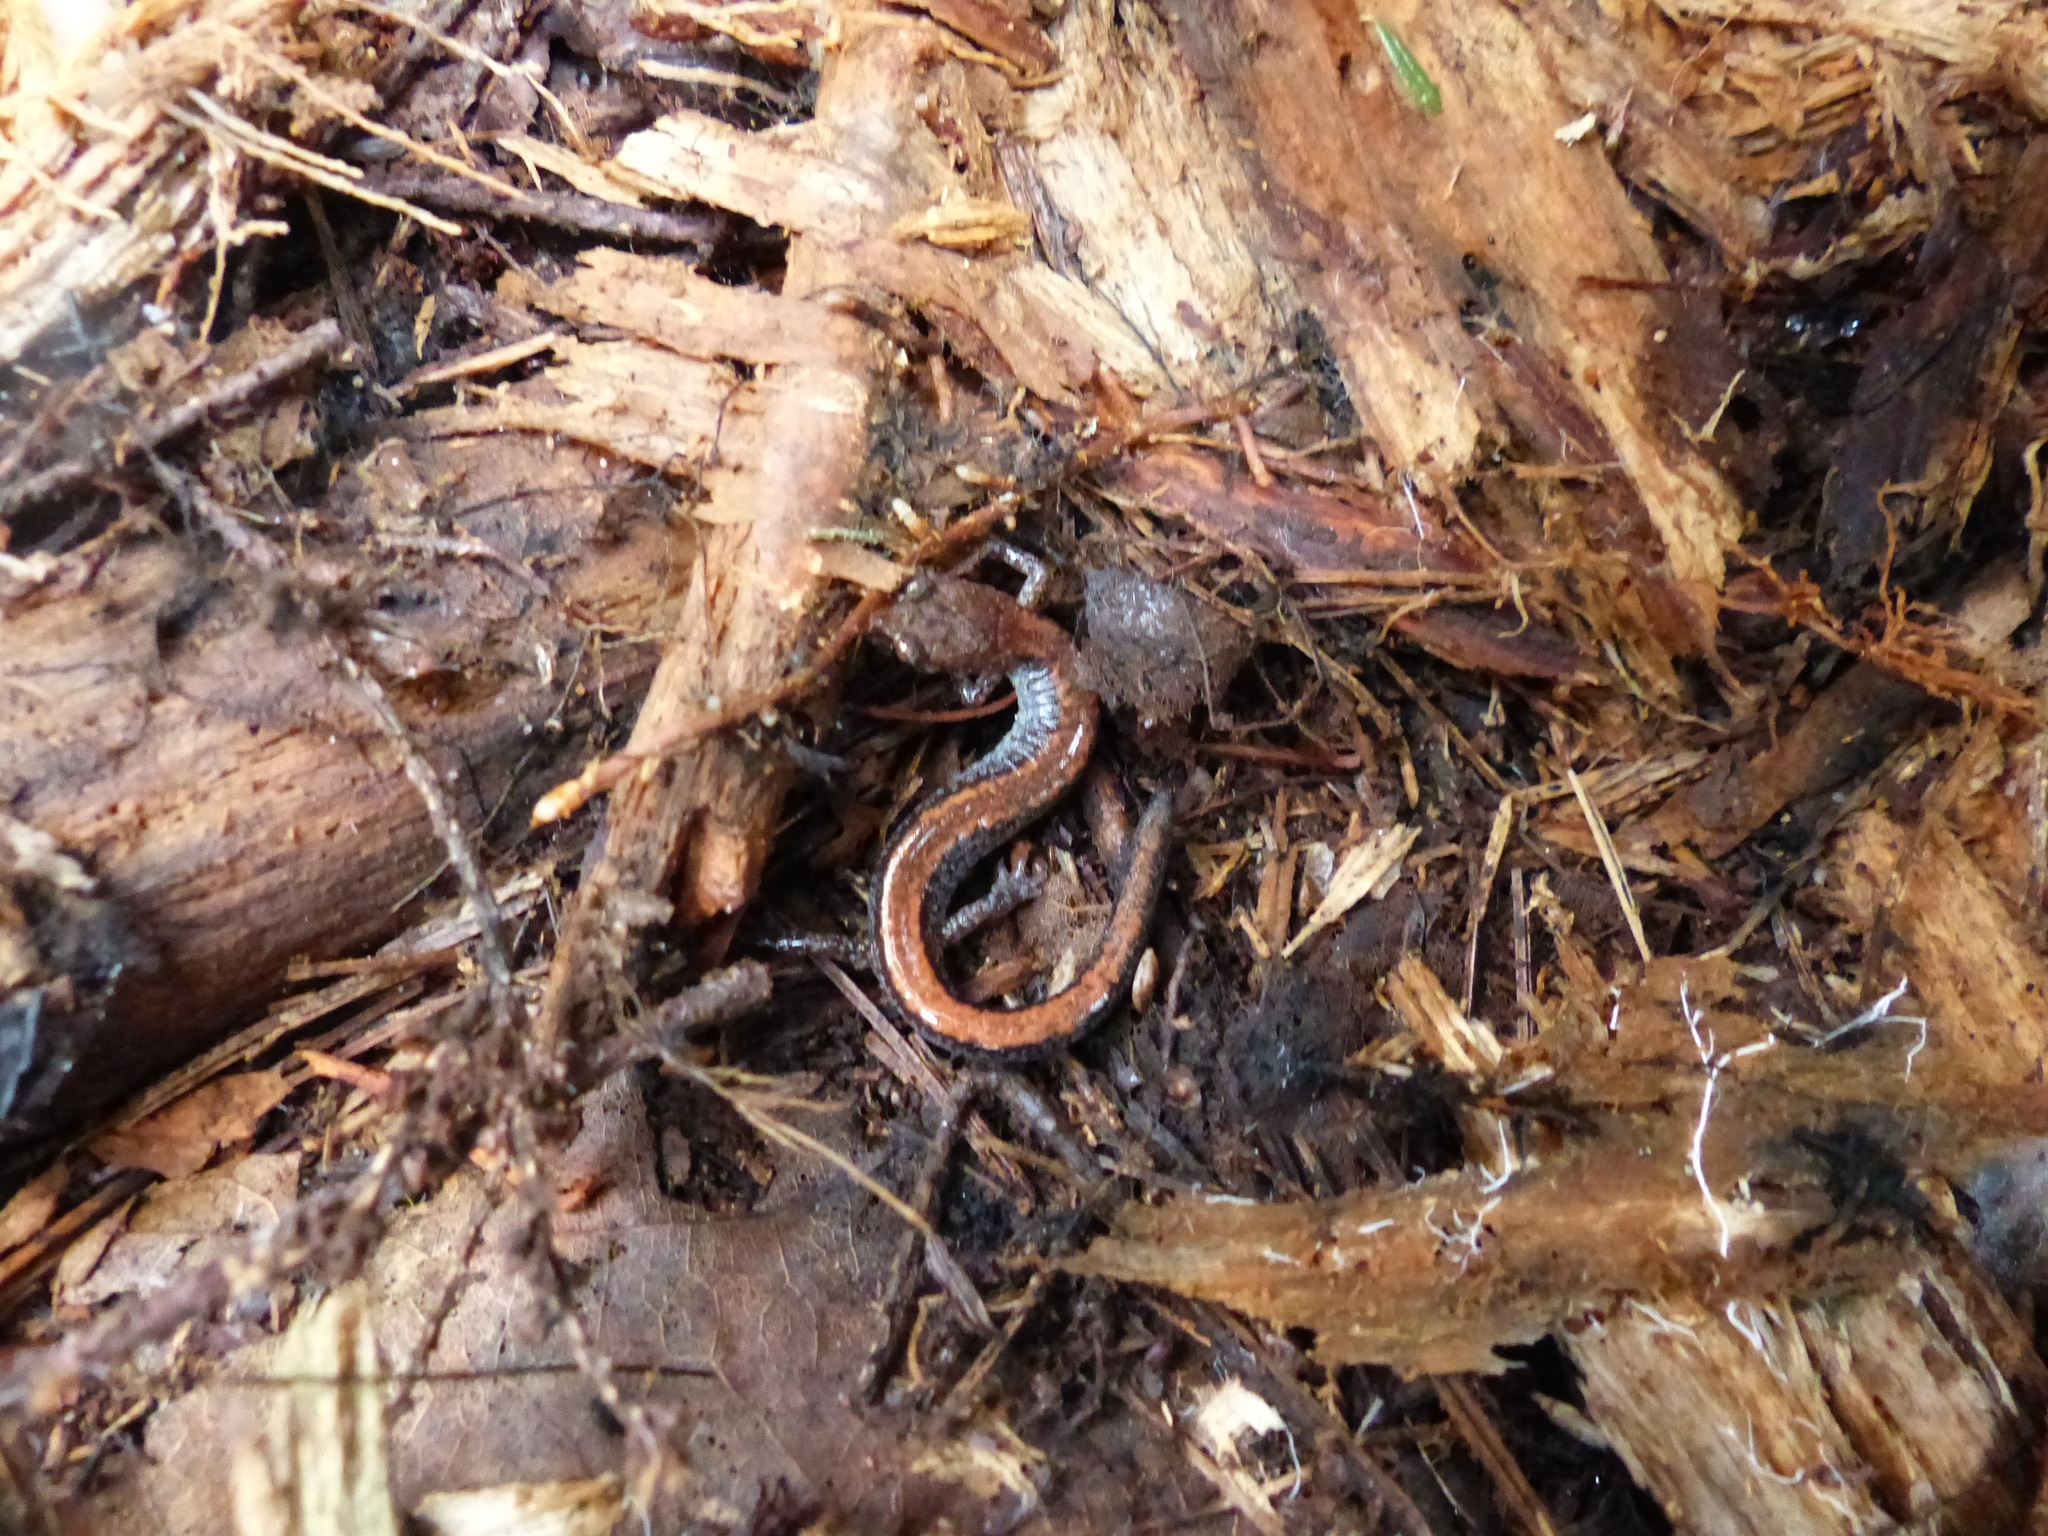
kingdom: Animalia
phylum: Chordata
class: Amphibia
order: Caudata
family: Plethodontidae
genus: Plethodon
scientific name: Plethodon cinereus
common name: Redback salamander
